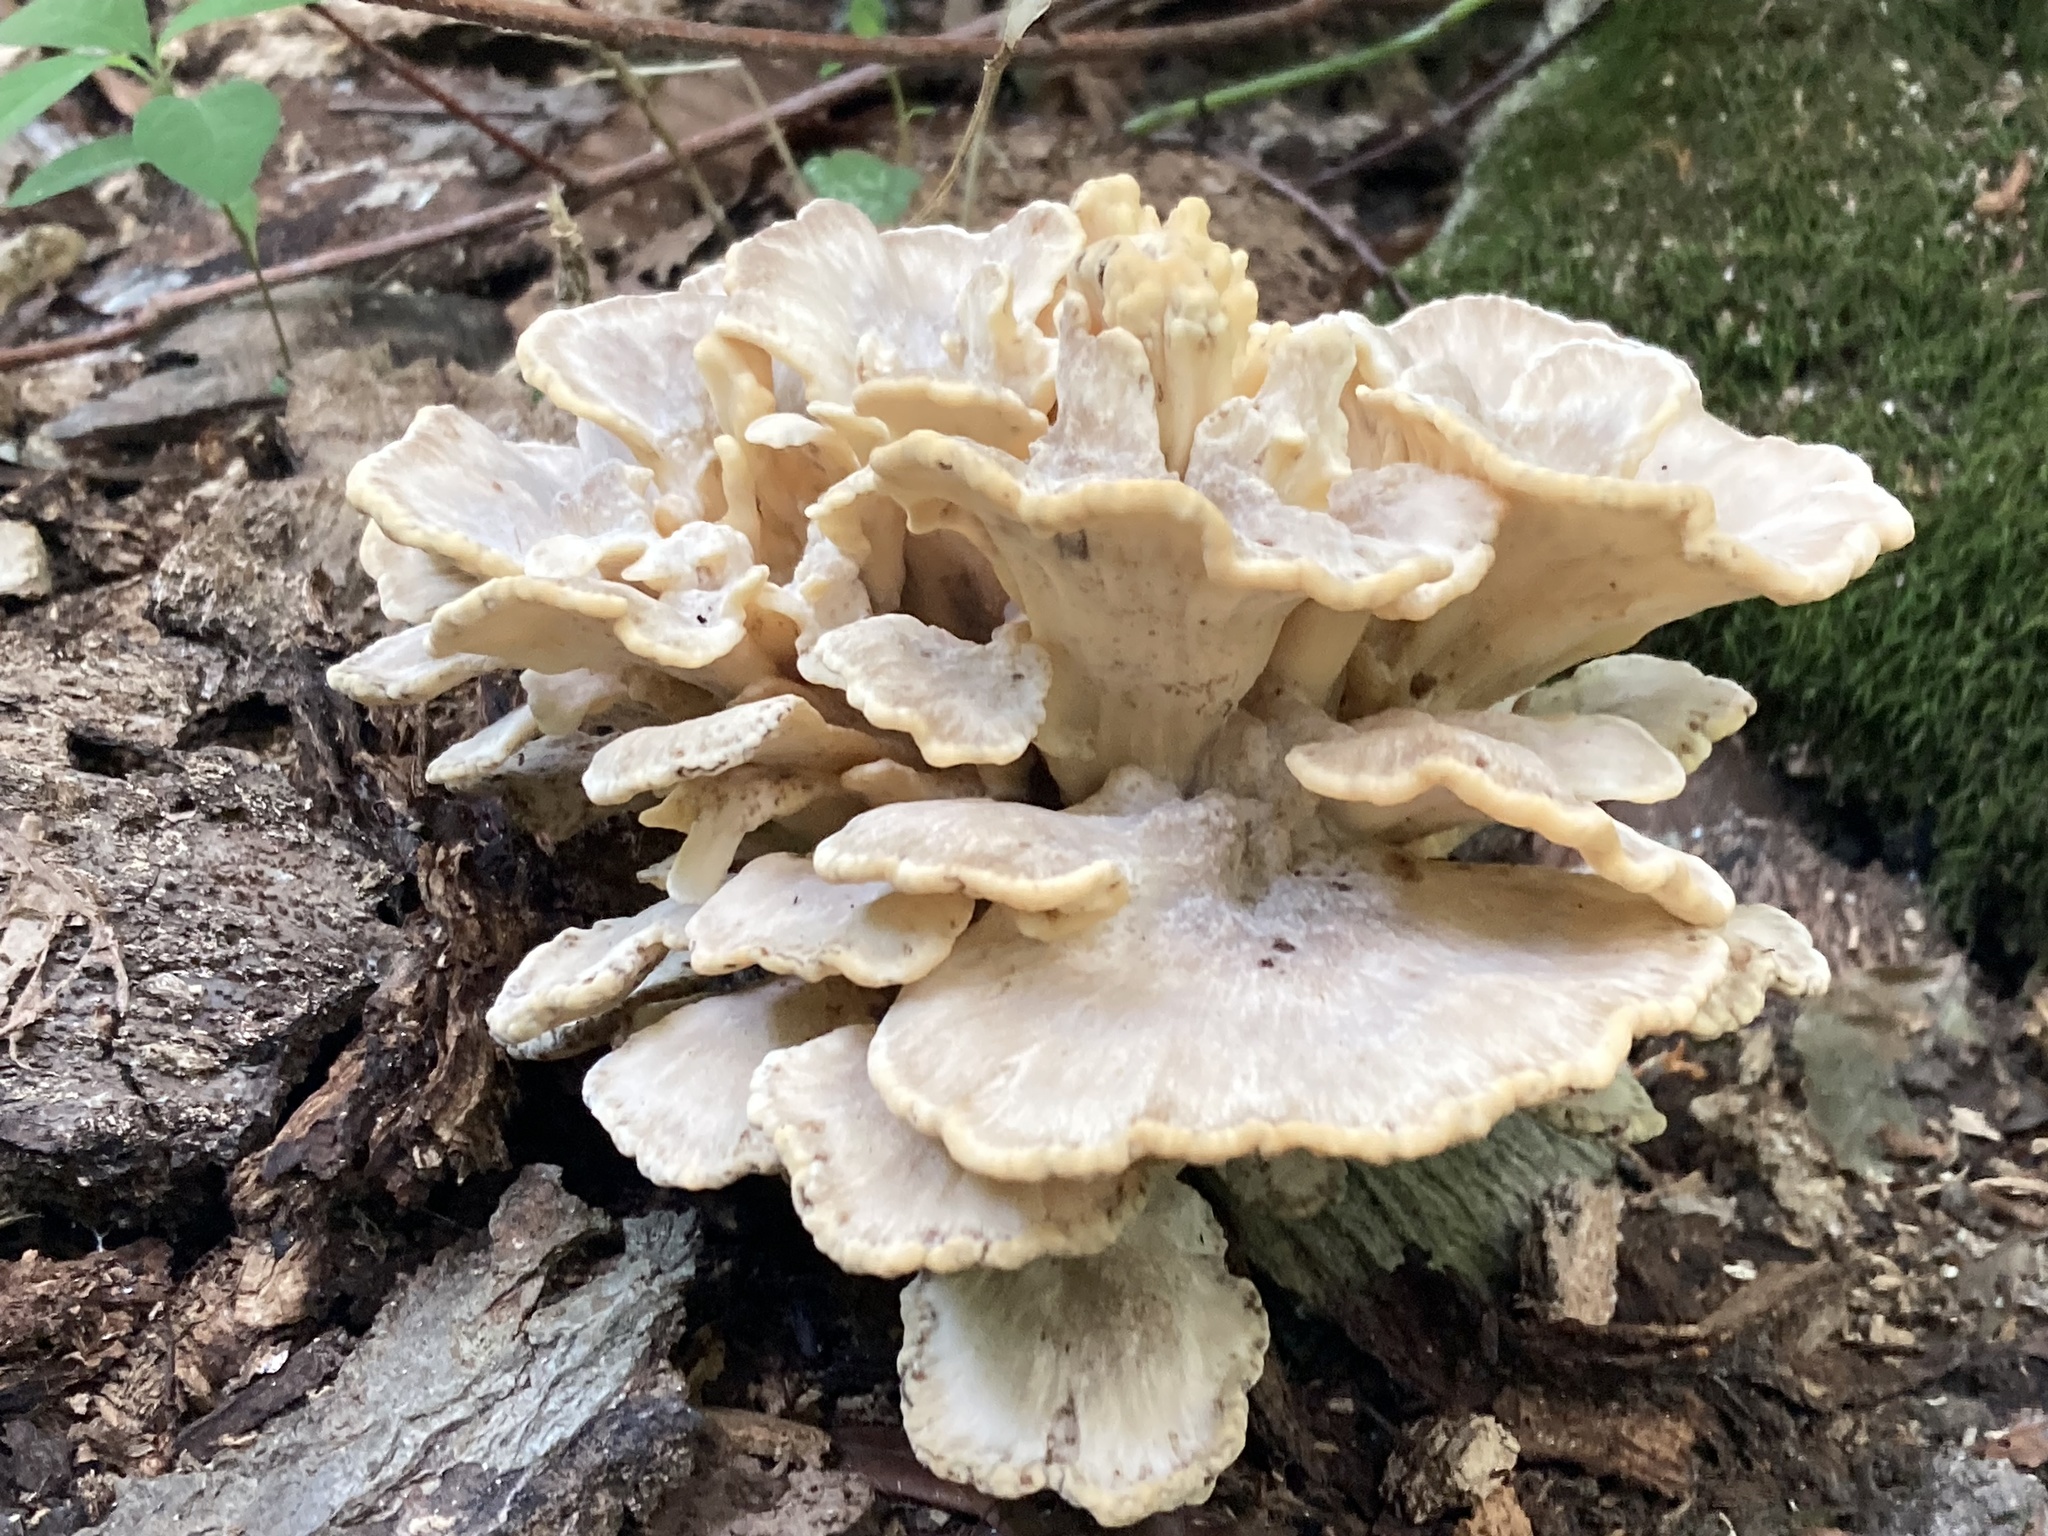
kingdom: Fungi
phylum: Basidiomycota
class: Agaricomycetes
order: Polyporales
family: Meripilaceae
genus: Meripilus
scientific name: Meripilus sumstinei
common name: Black-staining polypore
